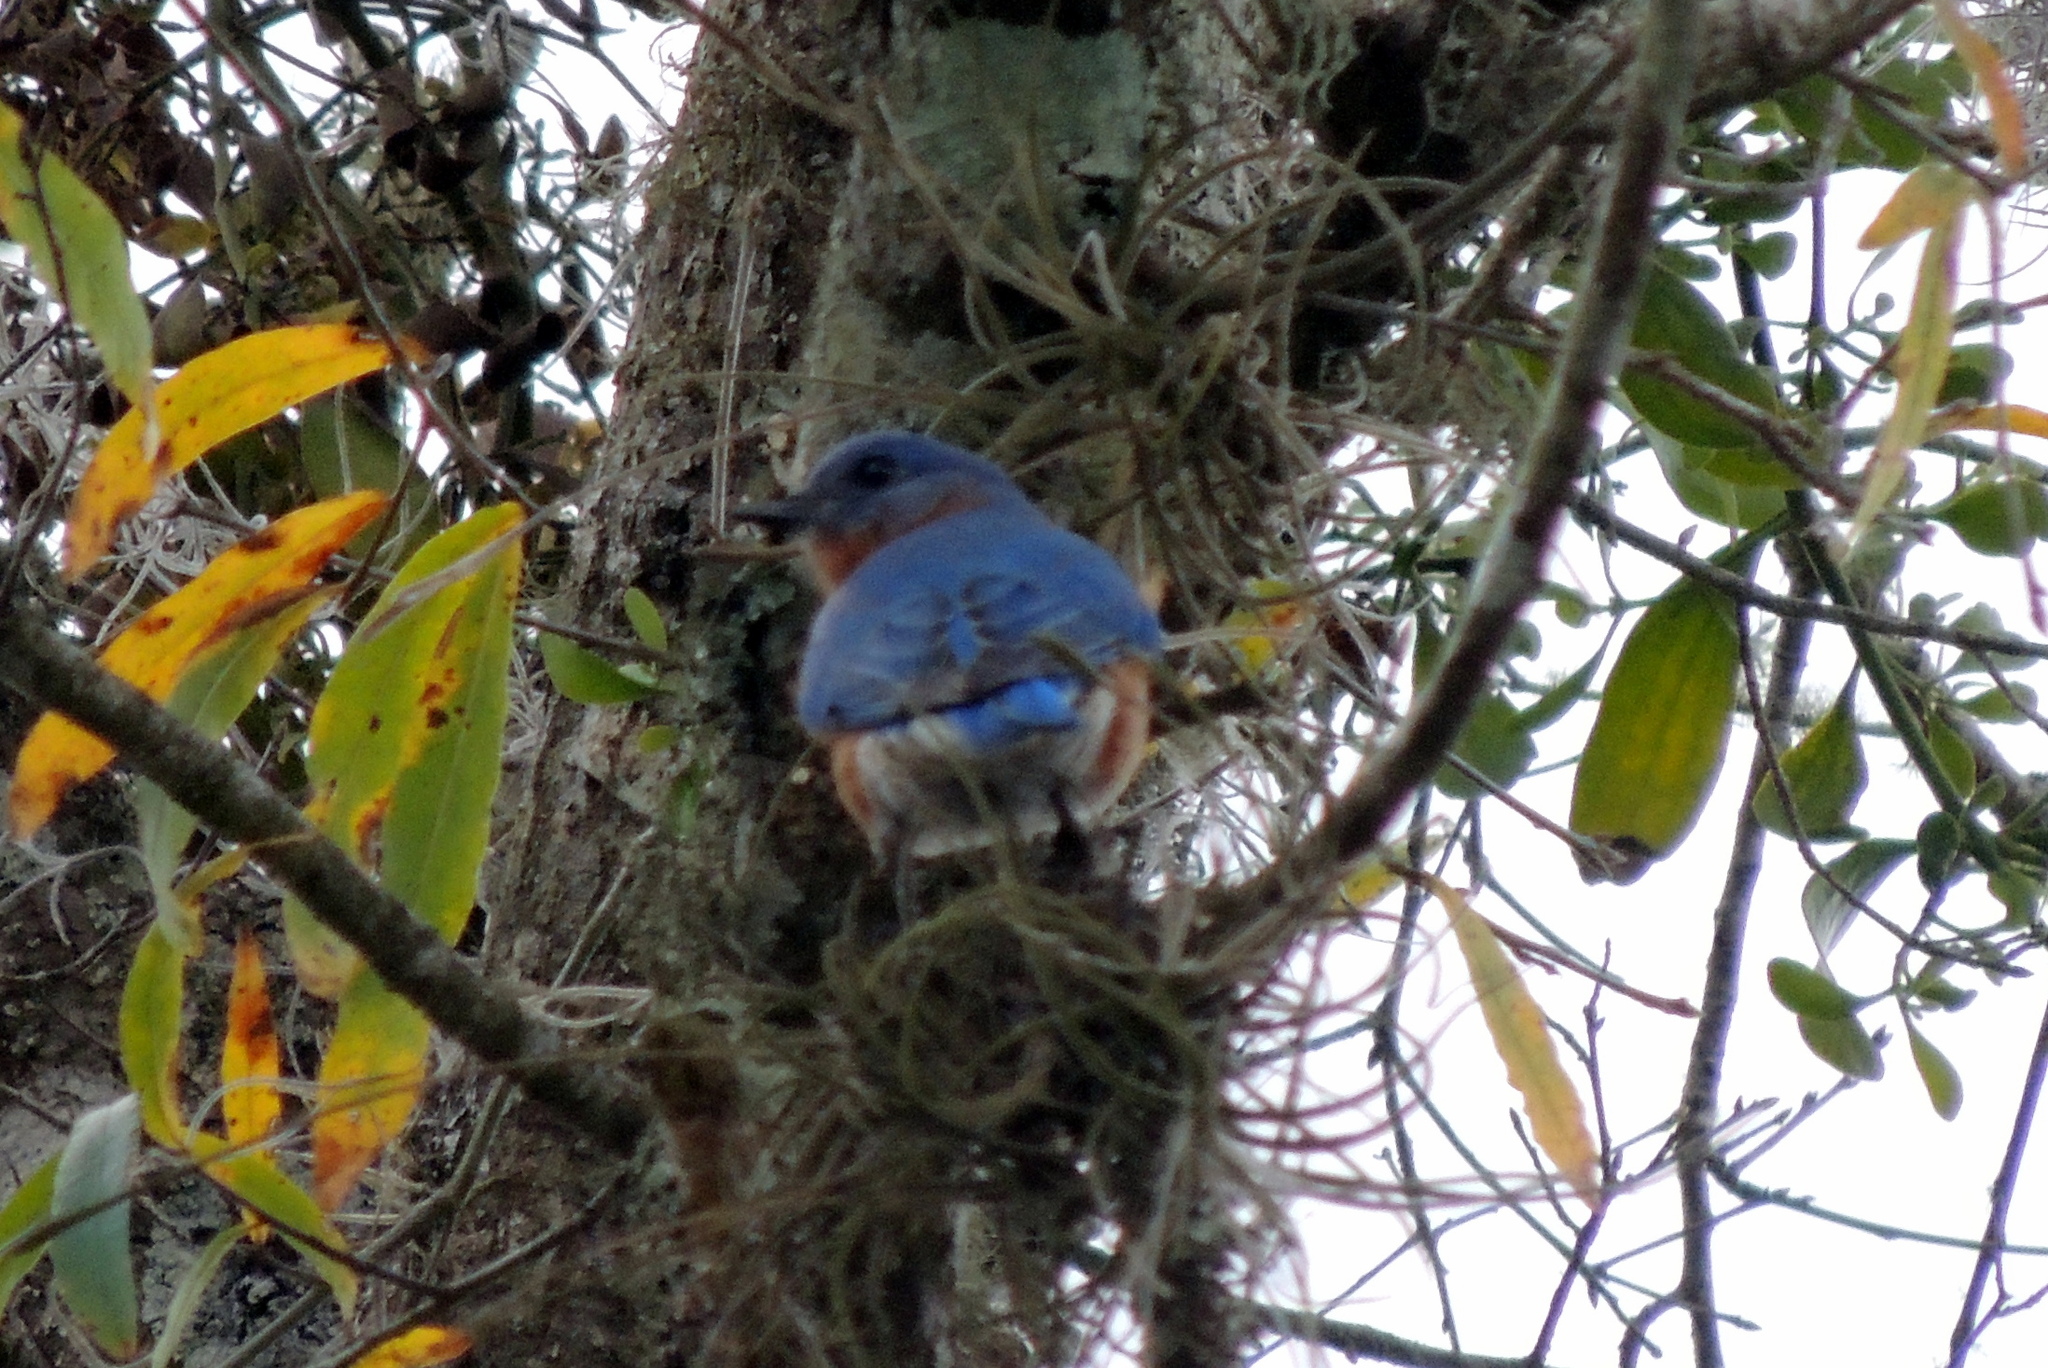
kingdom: Animalia
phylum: Chordata
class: Aves
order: Passeriformes
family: Turdidae
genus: Sialia
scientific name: Sialia sialis
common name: Eastern bluebird
